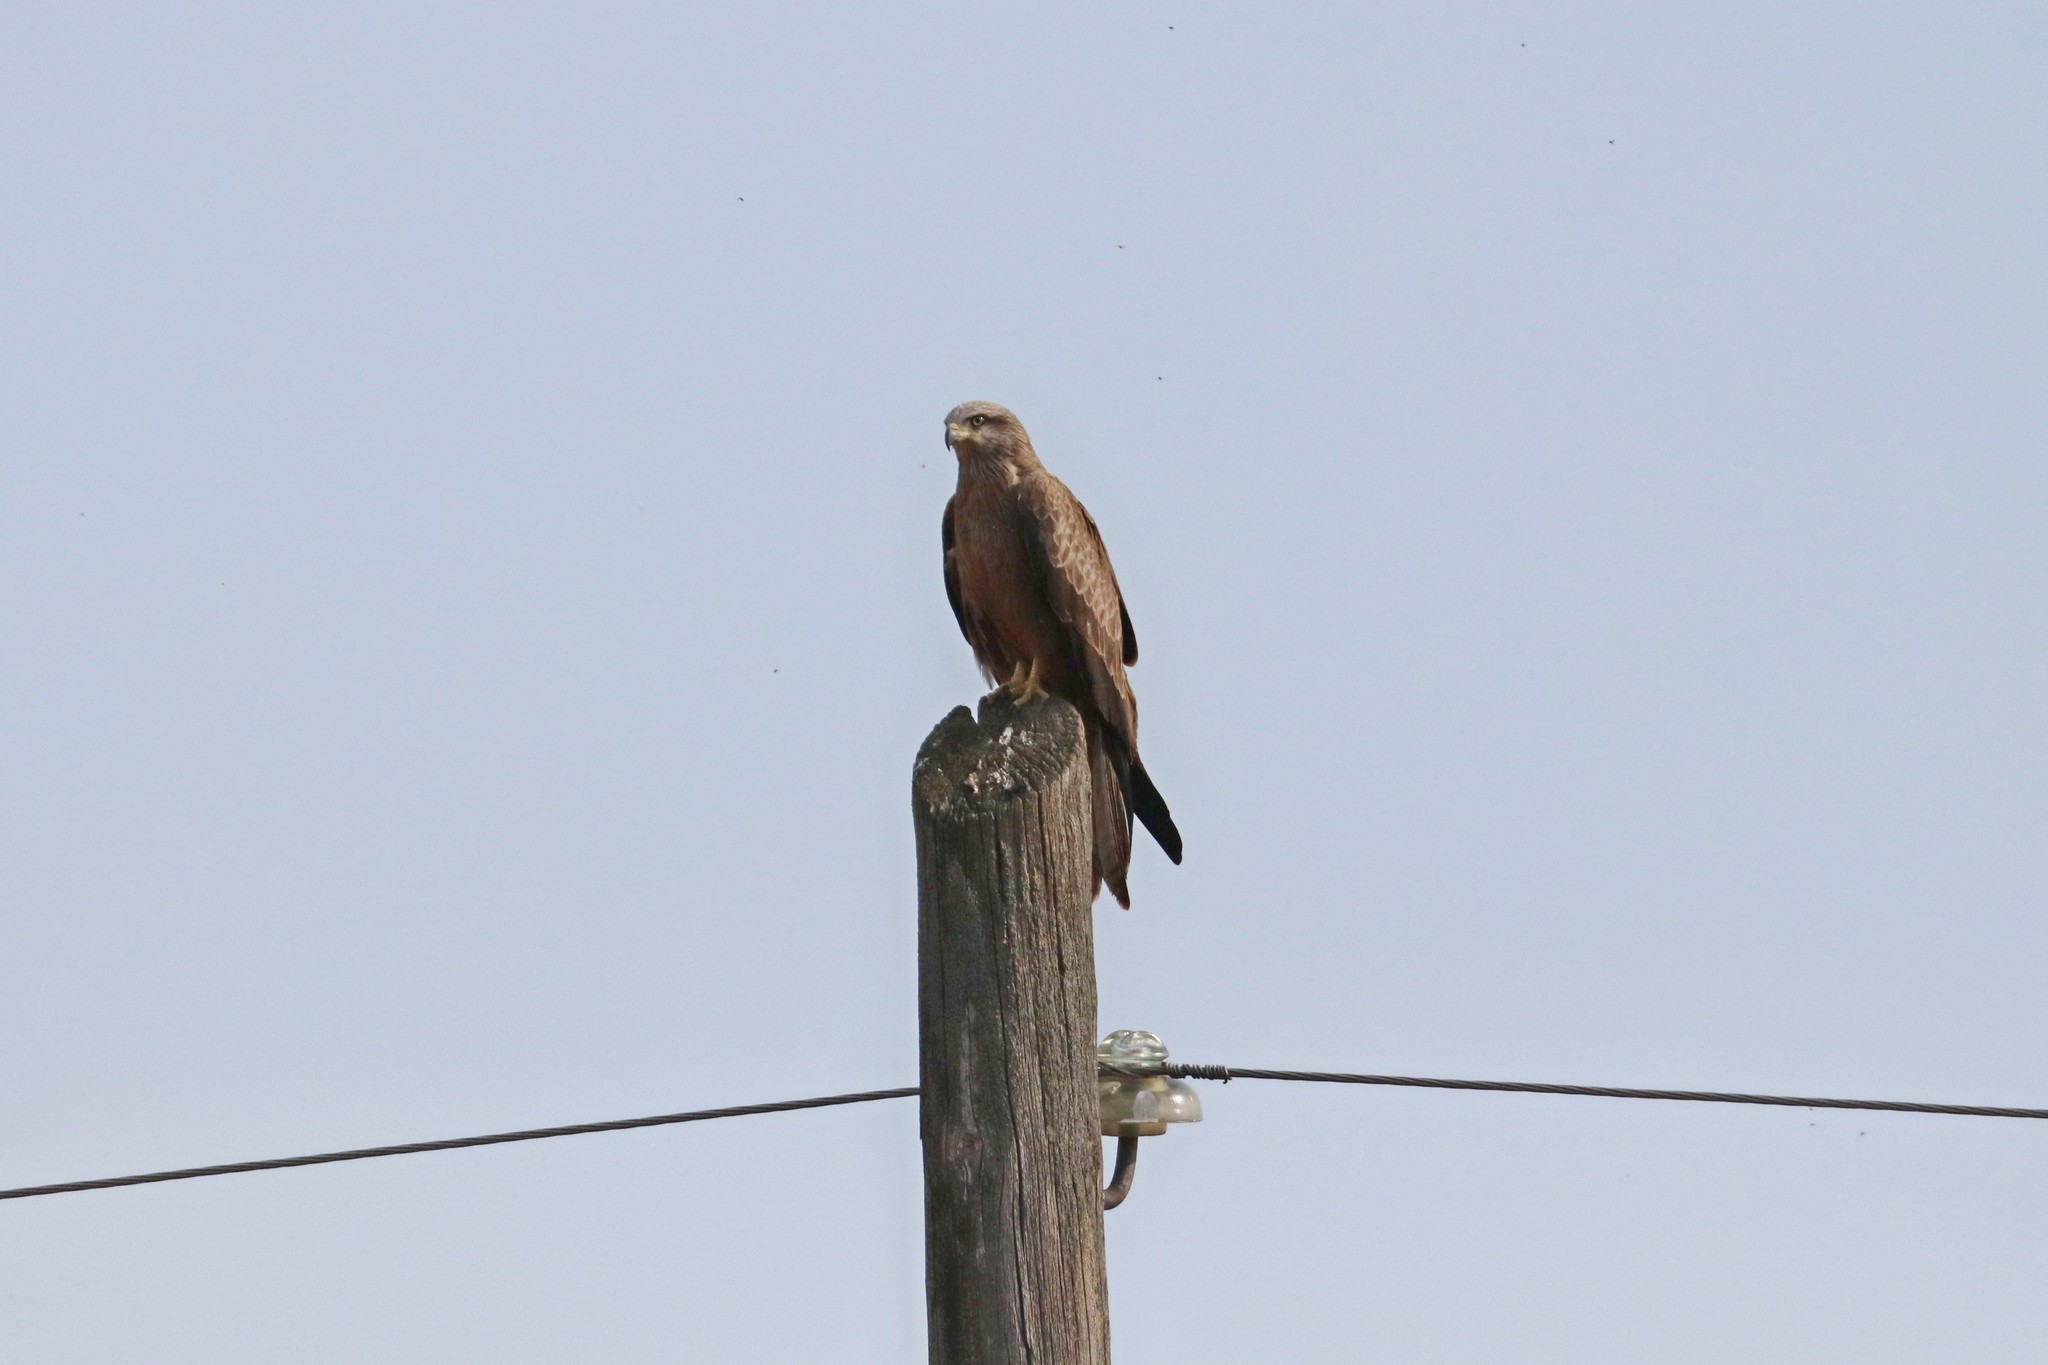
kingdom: Animalia
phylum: Chordata
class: Aves
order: Accipitriformes
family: Accipitridae
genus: Milvus
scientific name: Milvus migrans
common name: Black kite
